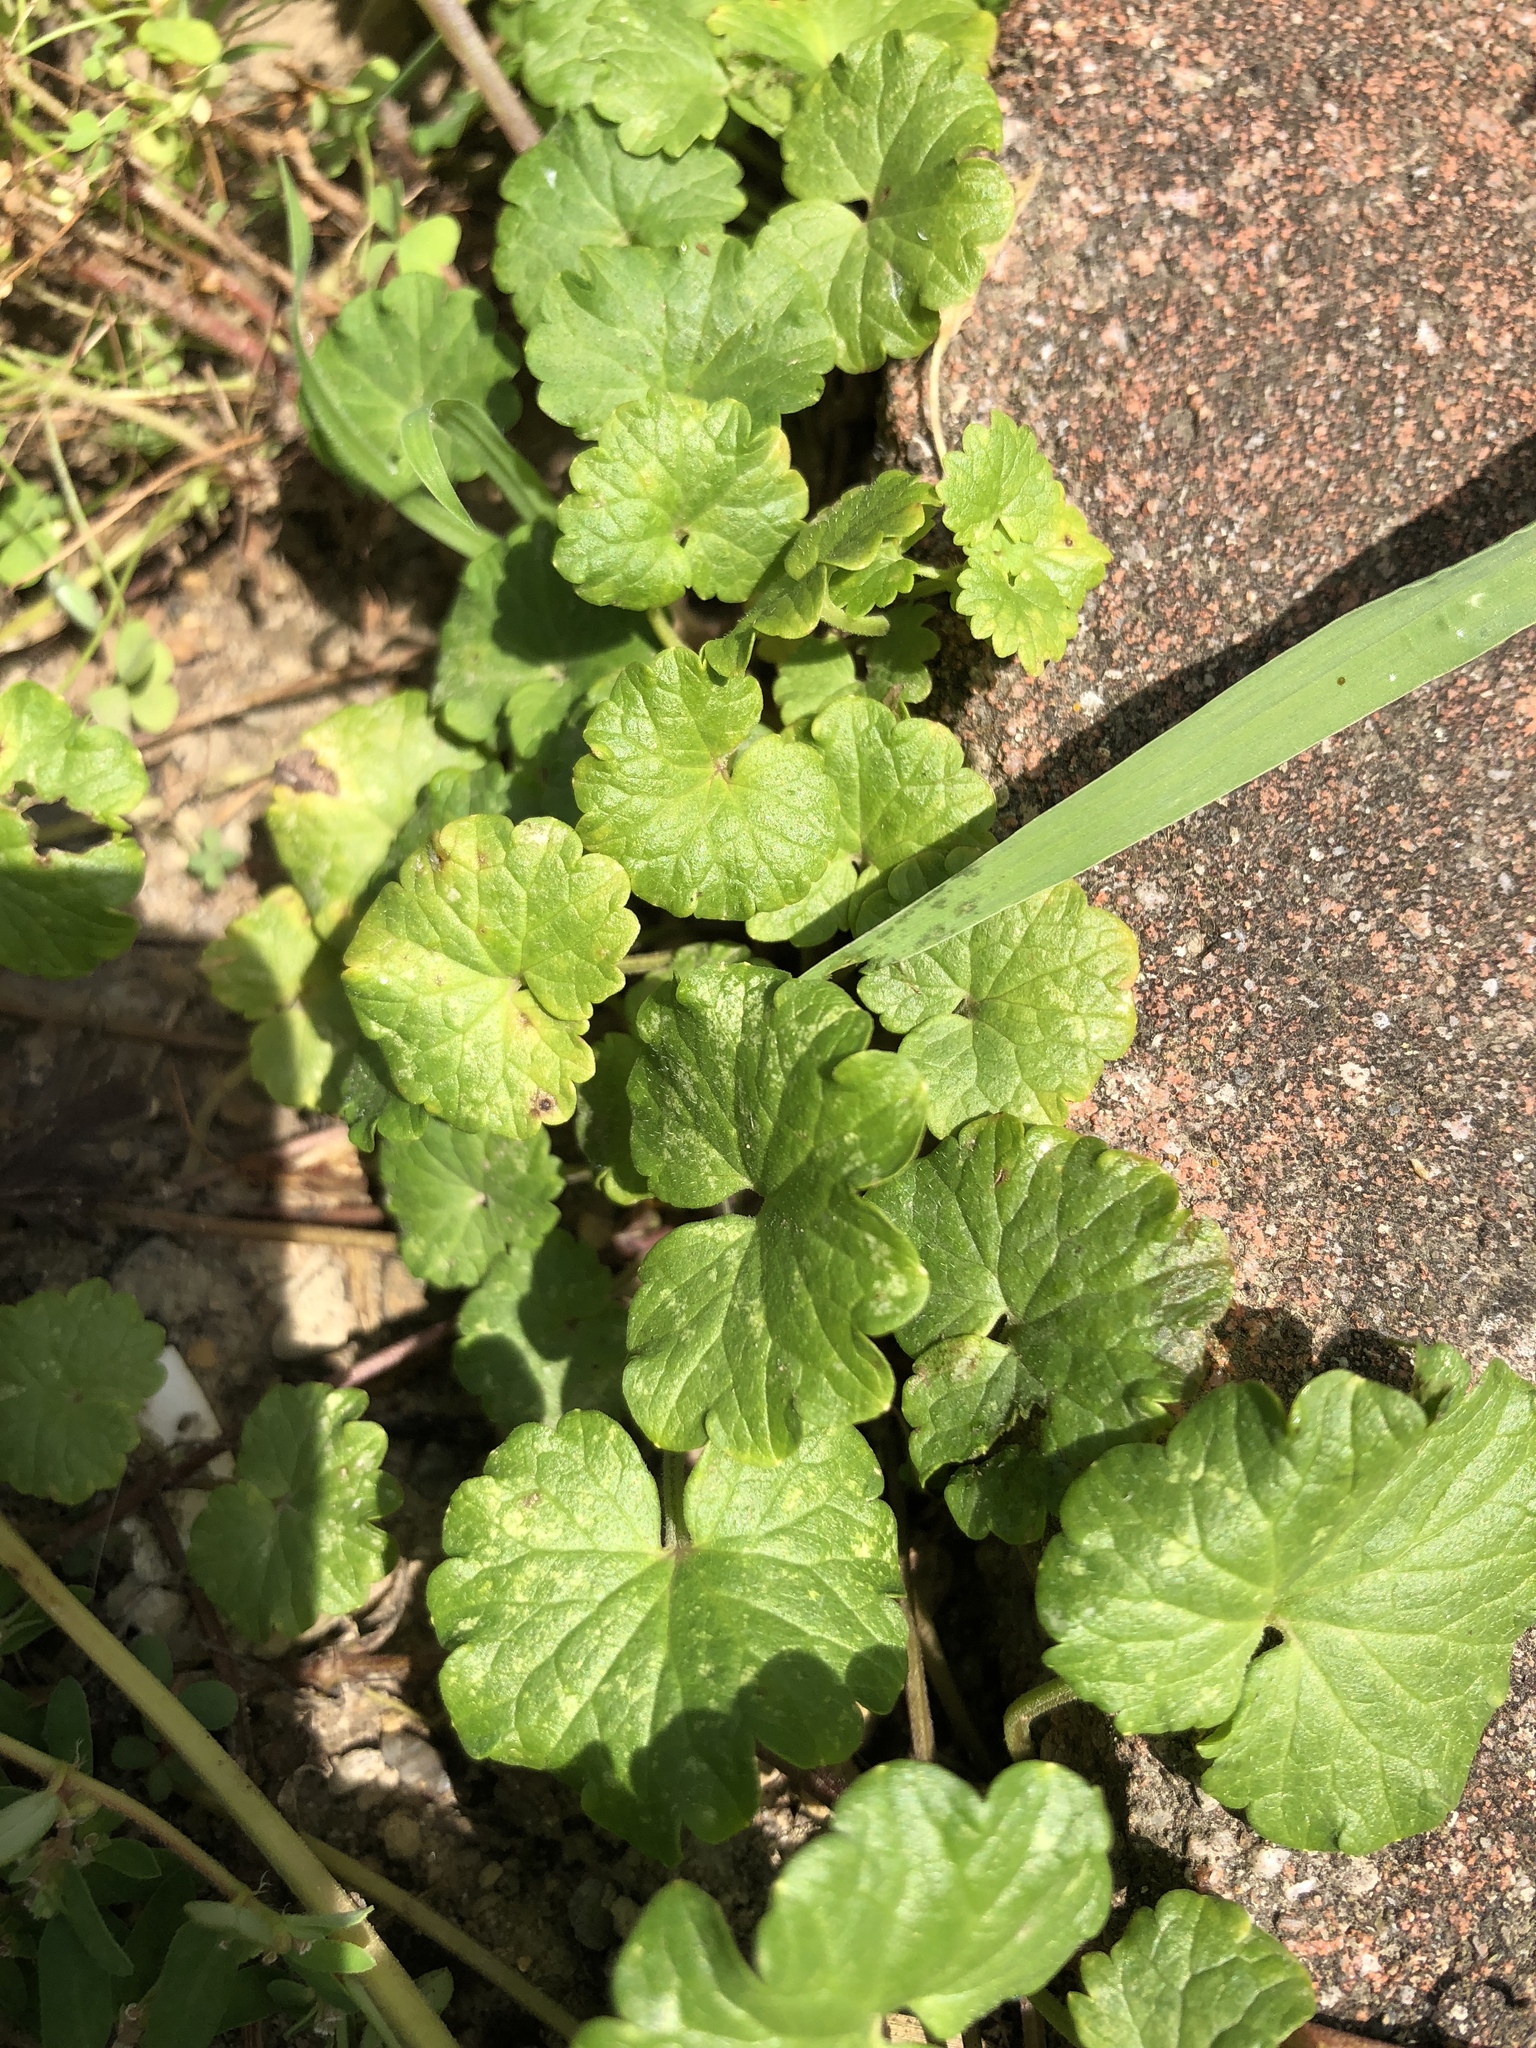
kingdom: Plantae
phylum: Tracheophyta
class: Magnoliopsida
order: Lamiales
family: Lamiaceae
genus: Glechoma
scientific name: Glechoma hederacea
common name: Ground ivy
